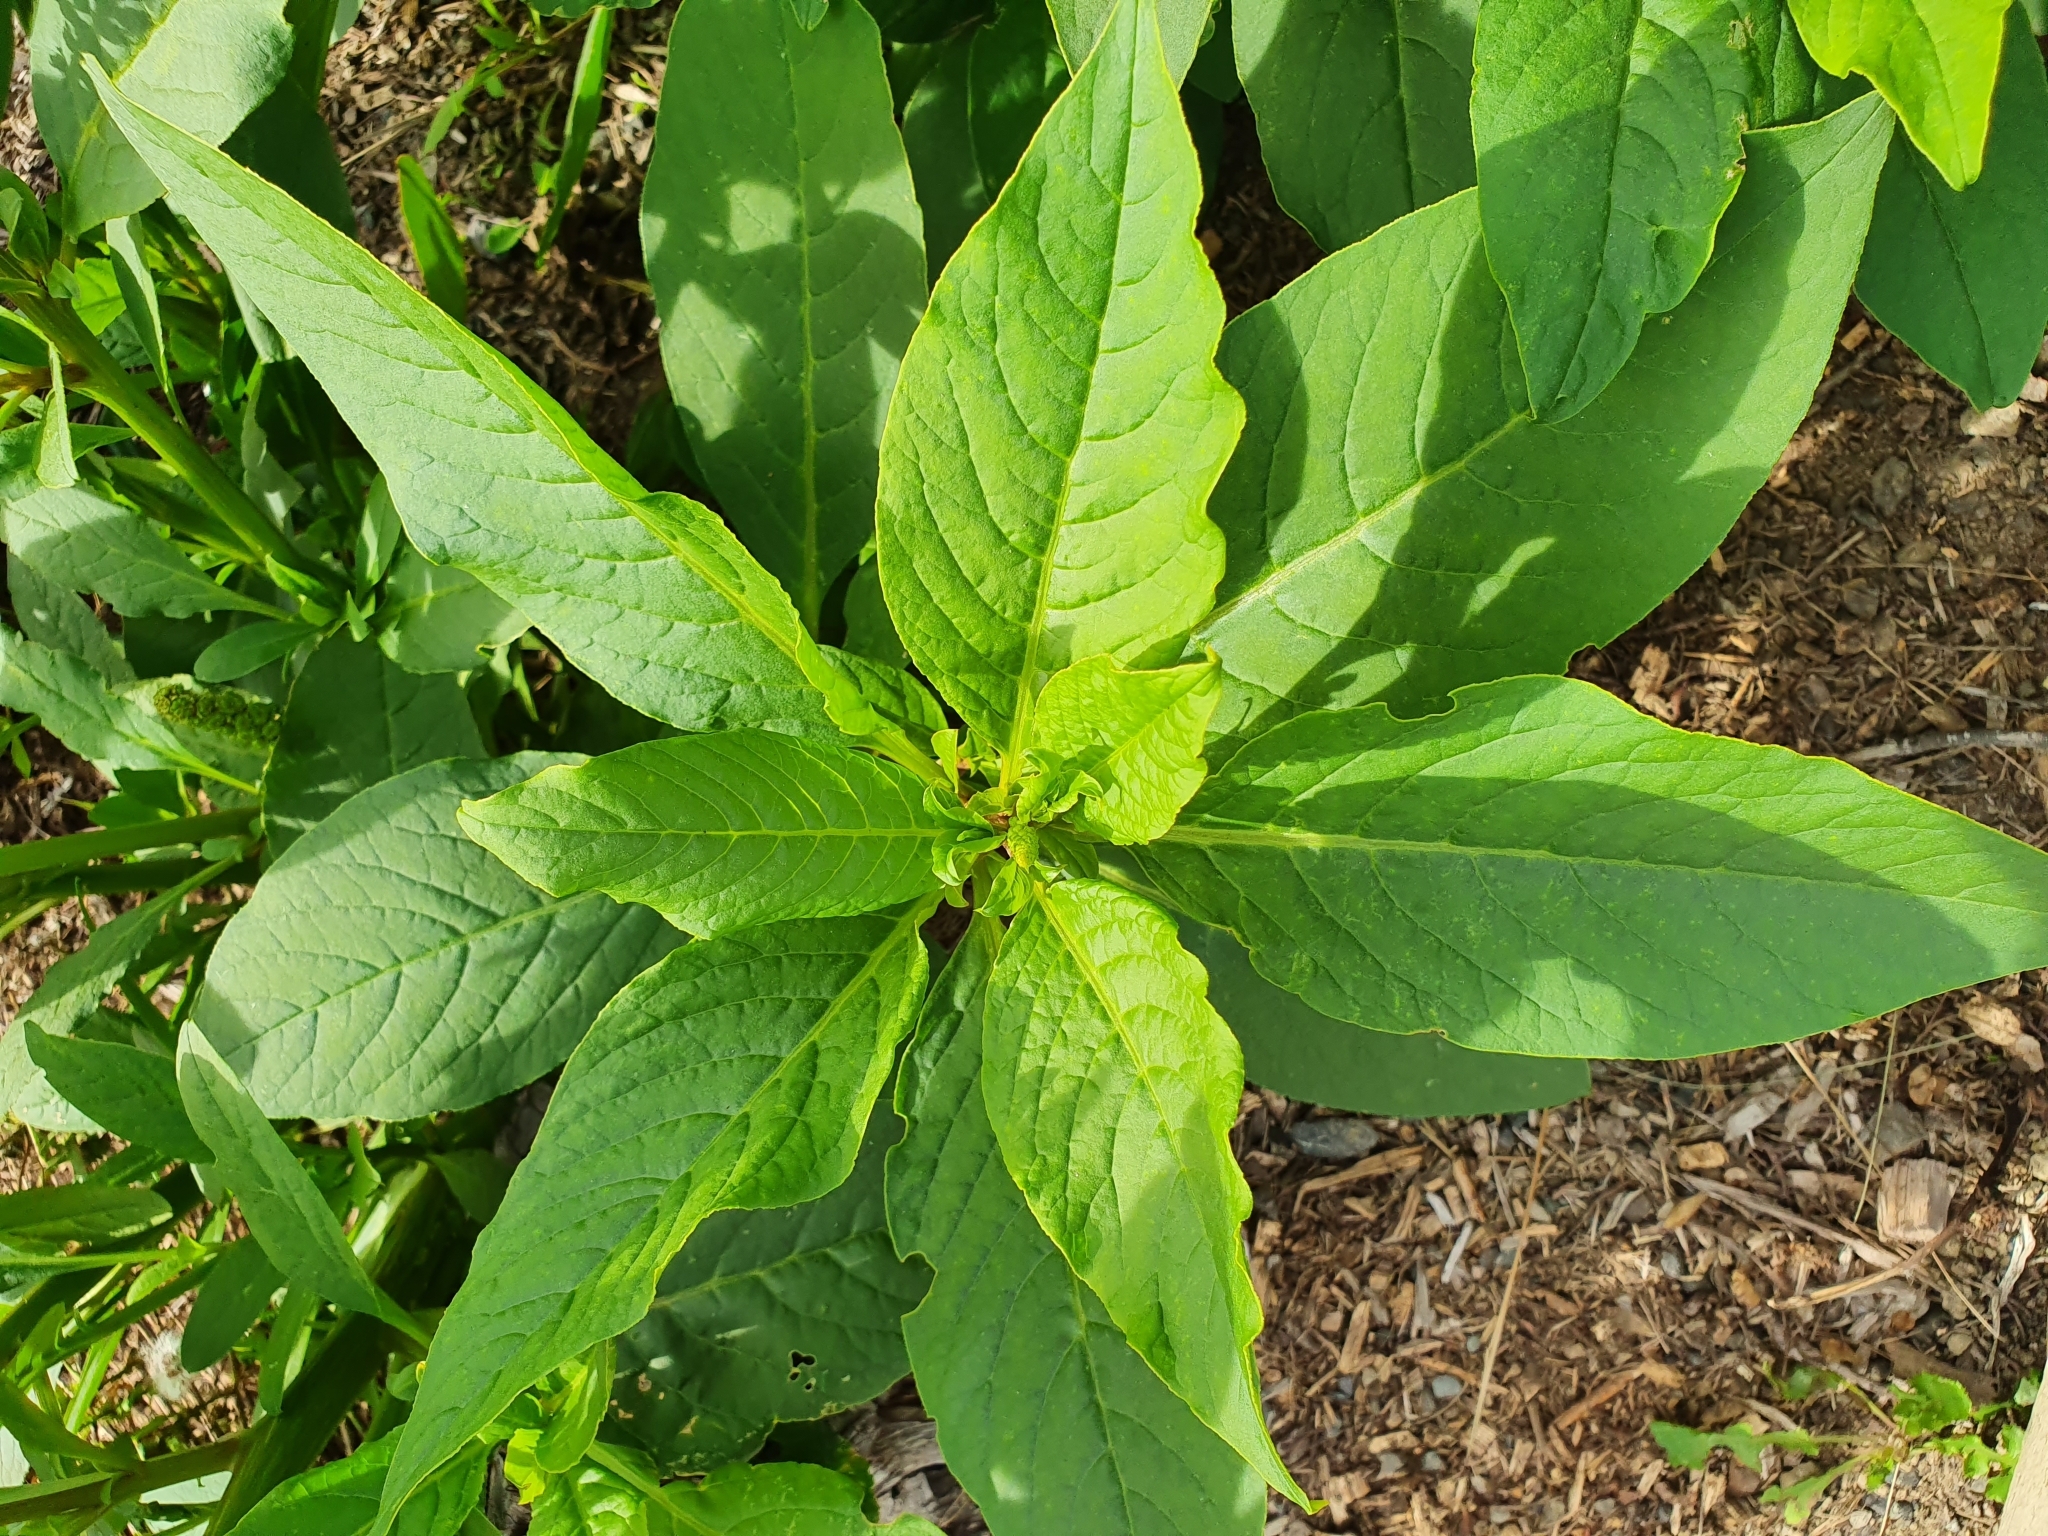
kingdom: Plantae
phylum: Tracheophyta
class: Magnoliopsida
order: Caryophyllales
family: Phytolaccaceae
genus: Phytolacca
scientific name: Phytolacca icosandra
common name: Button pokeweed
